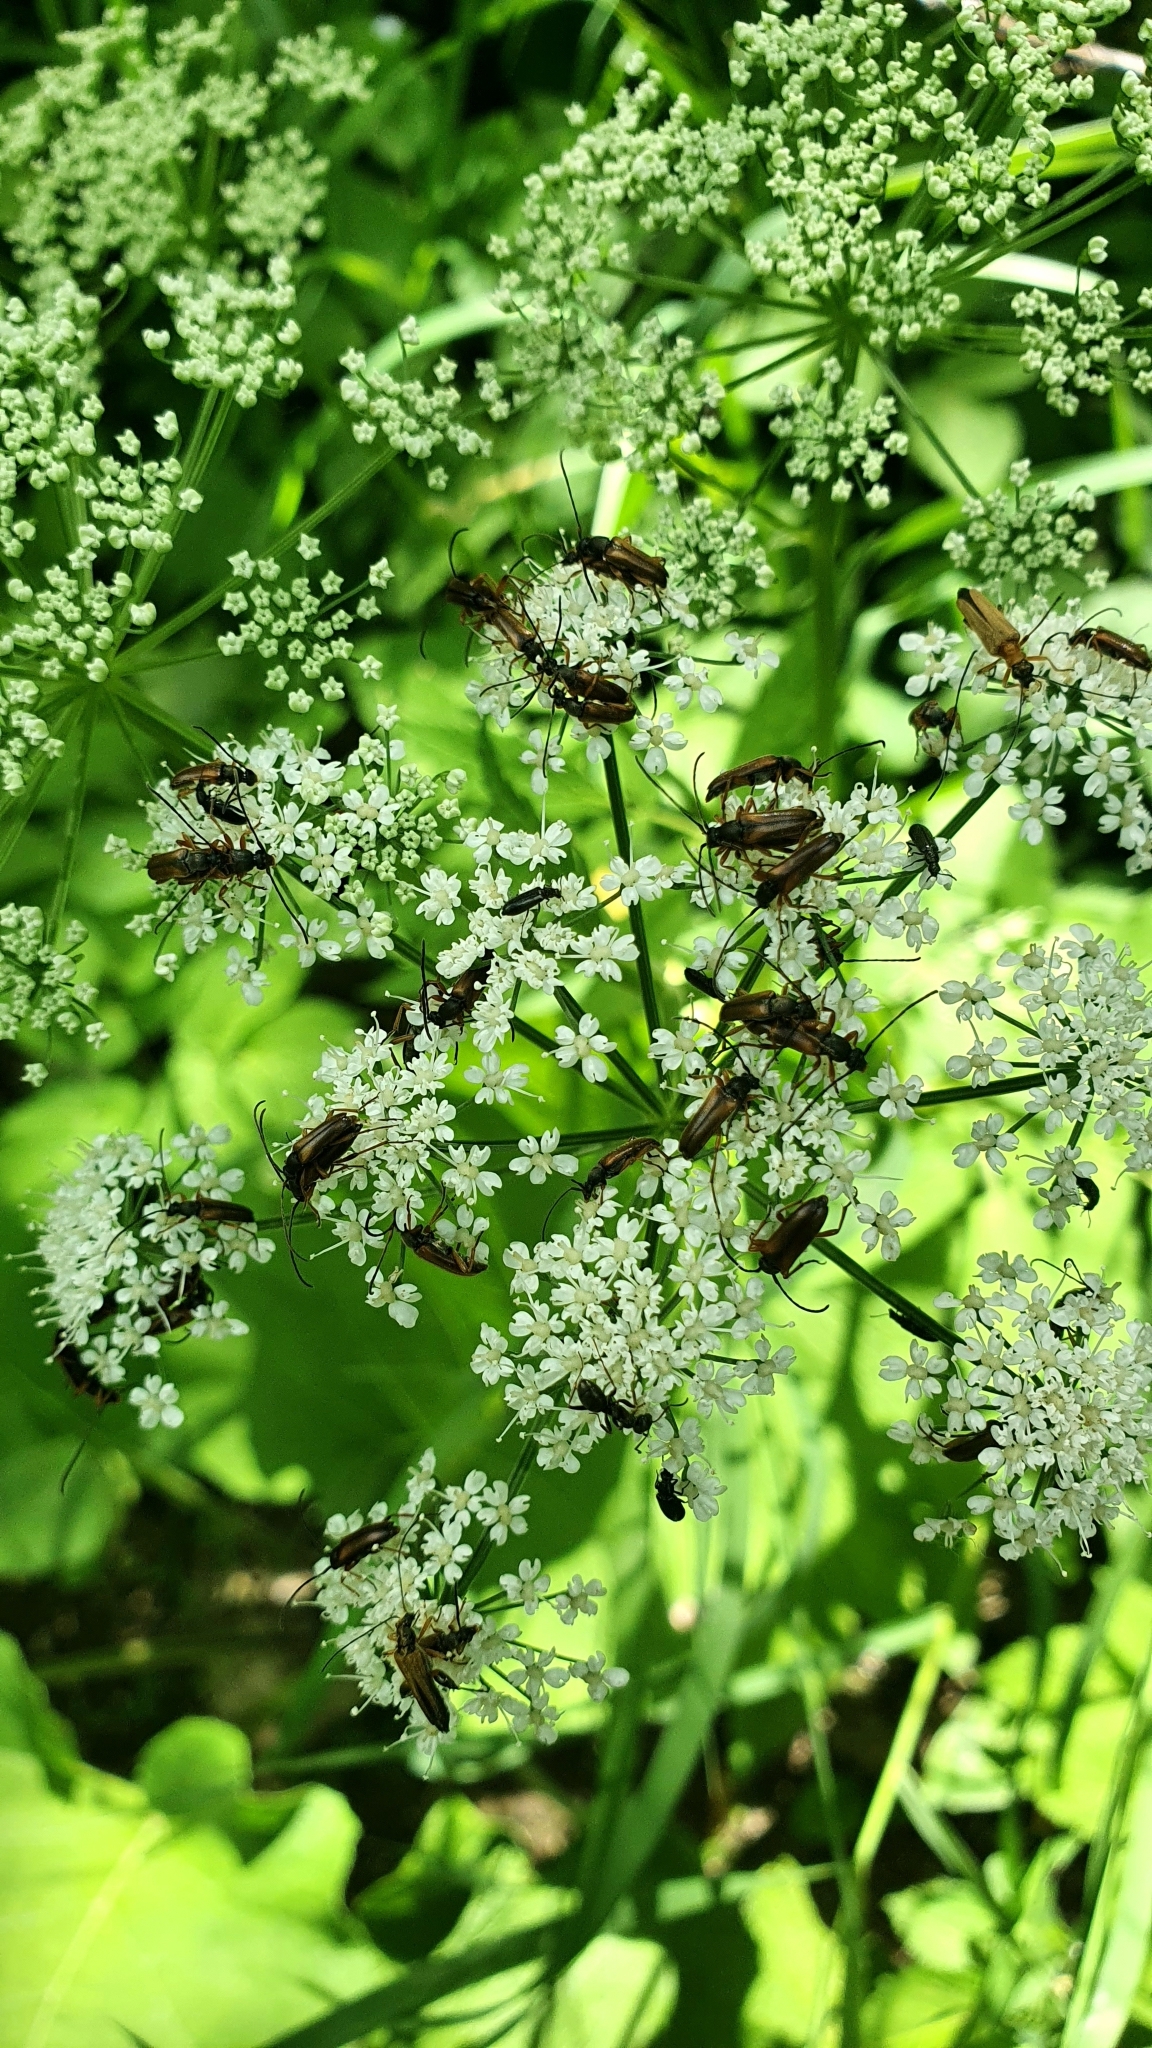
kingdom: Animalia
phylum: Arthropoda
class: Insecta
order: Coleoptera
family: Cerambycidae
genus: Alosterna
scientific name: Alosterna tabacicolor
